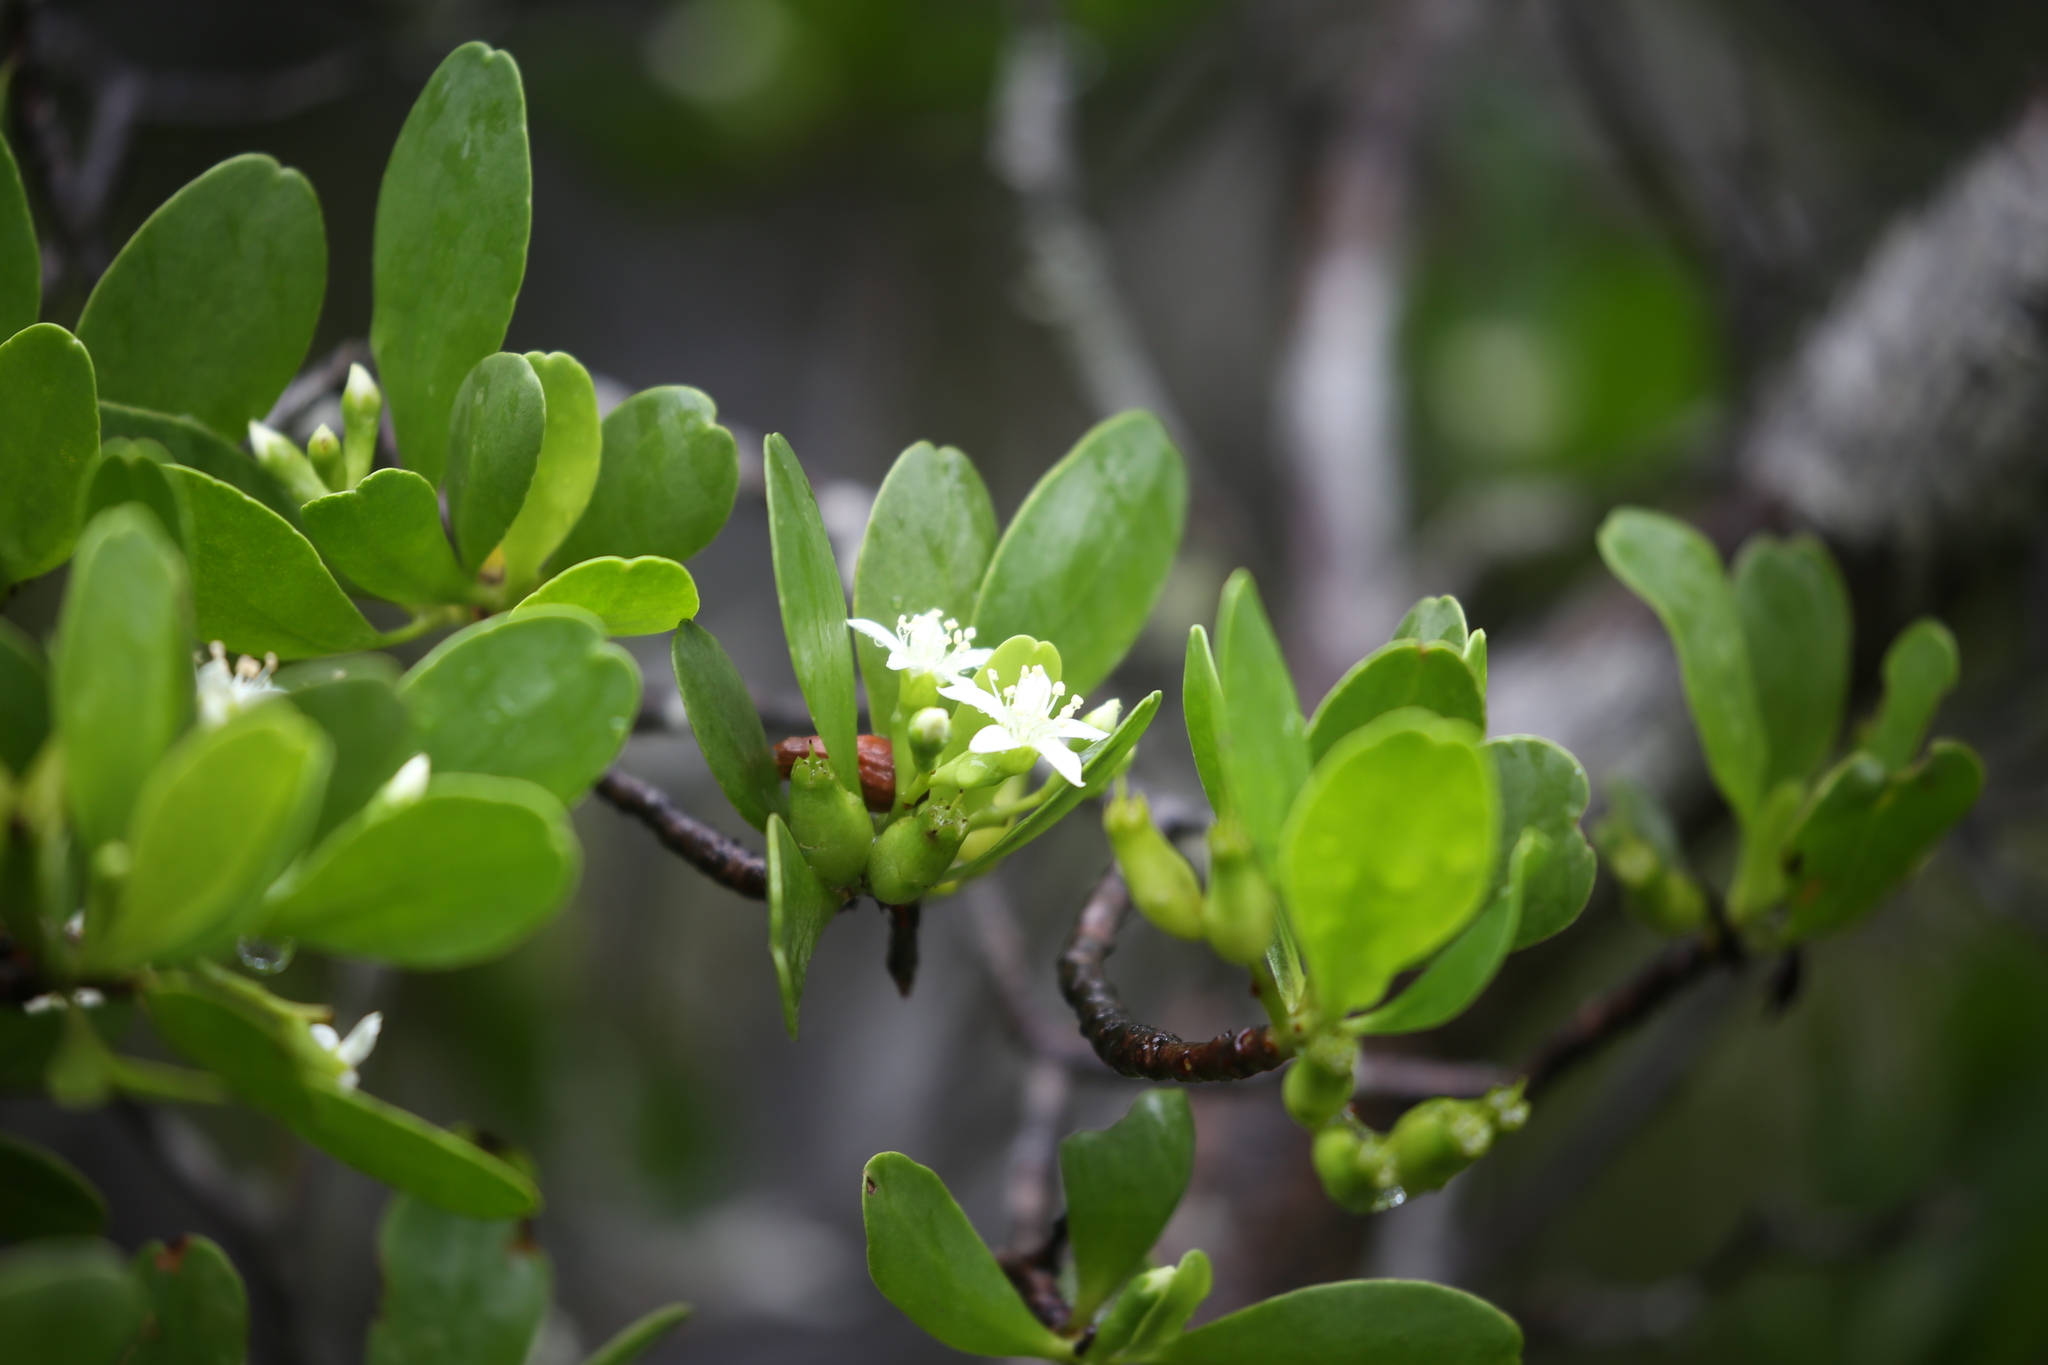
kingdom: Plantae
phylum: Tracheophyta
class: Magnoliopsida
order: Myrtales
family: Combretaceae
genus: Lumnitzera
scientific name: Lumnitzera racemosa
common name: White-flowered black mangrove
